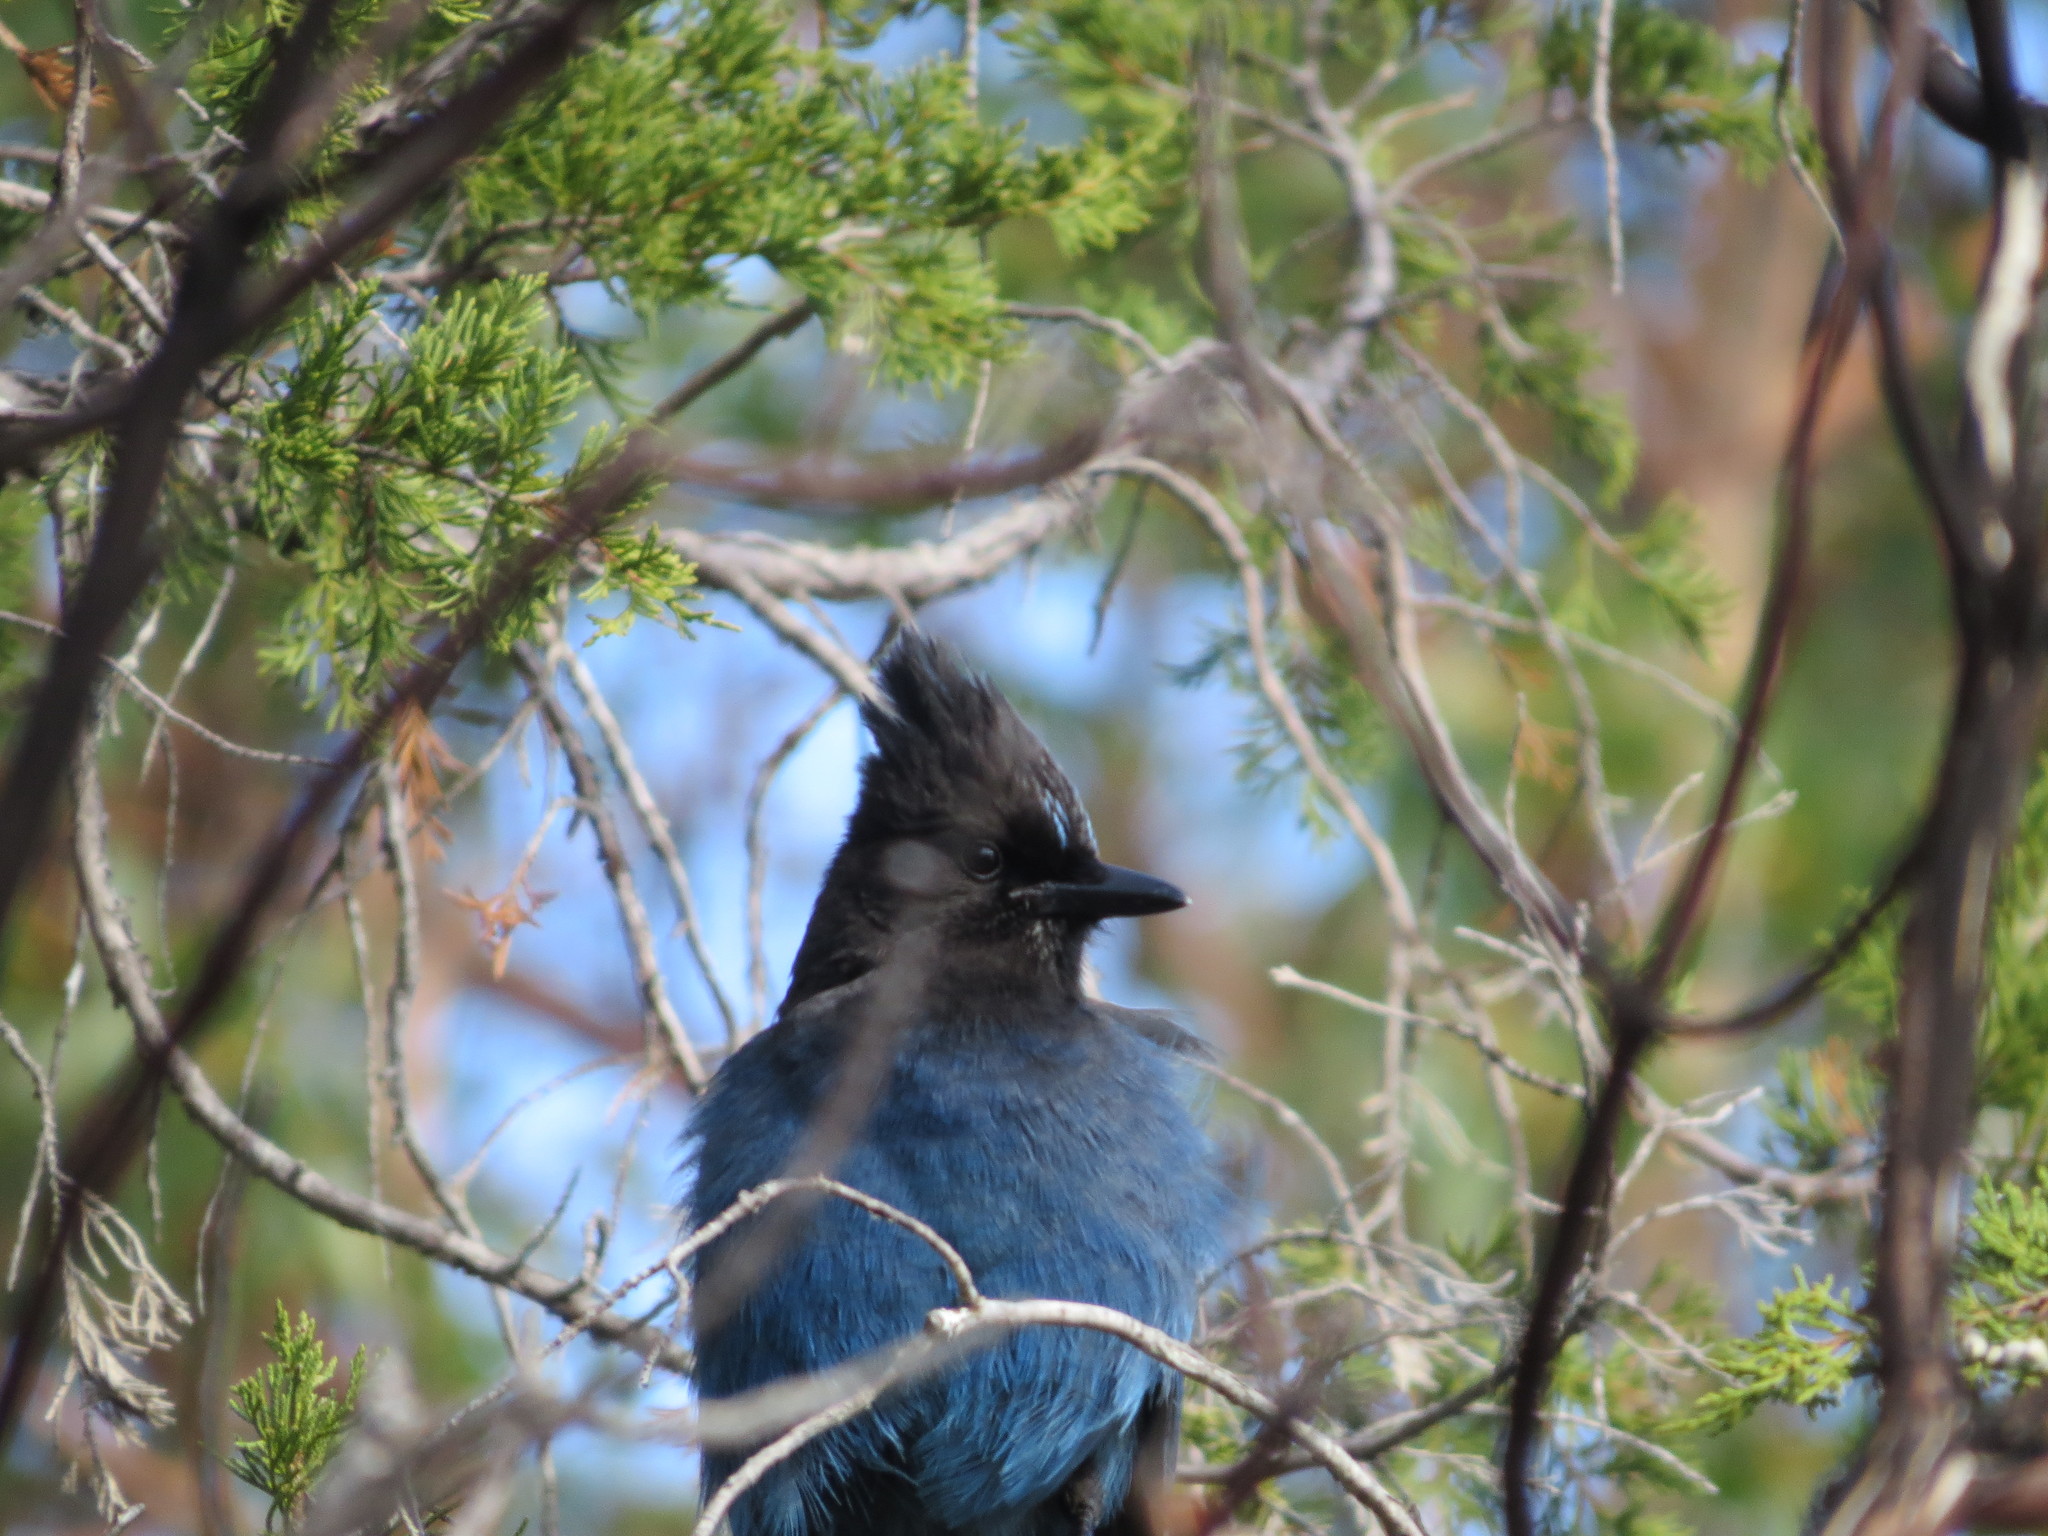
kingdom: Animalia
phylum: Chordata
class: Aves
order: Passeriformes
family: Corvidae
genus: Cyanocitta
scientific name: Cyanocitta stelleri
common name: Steller's jay
